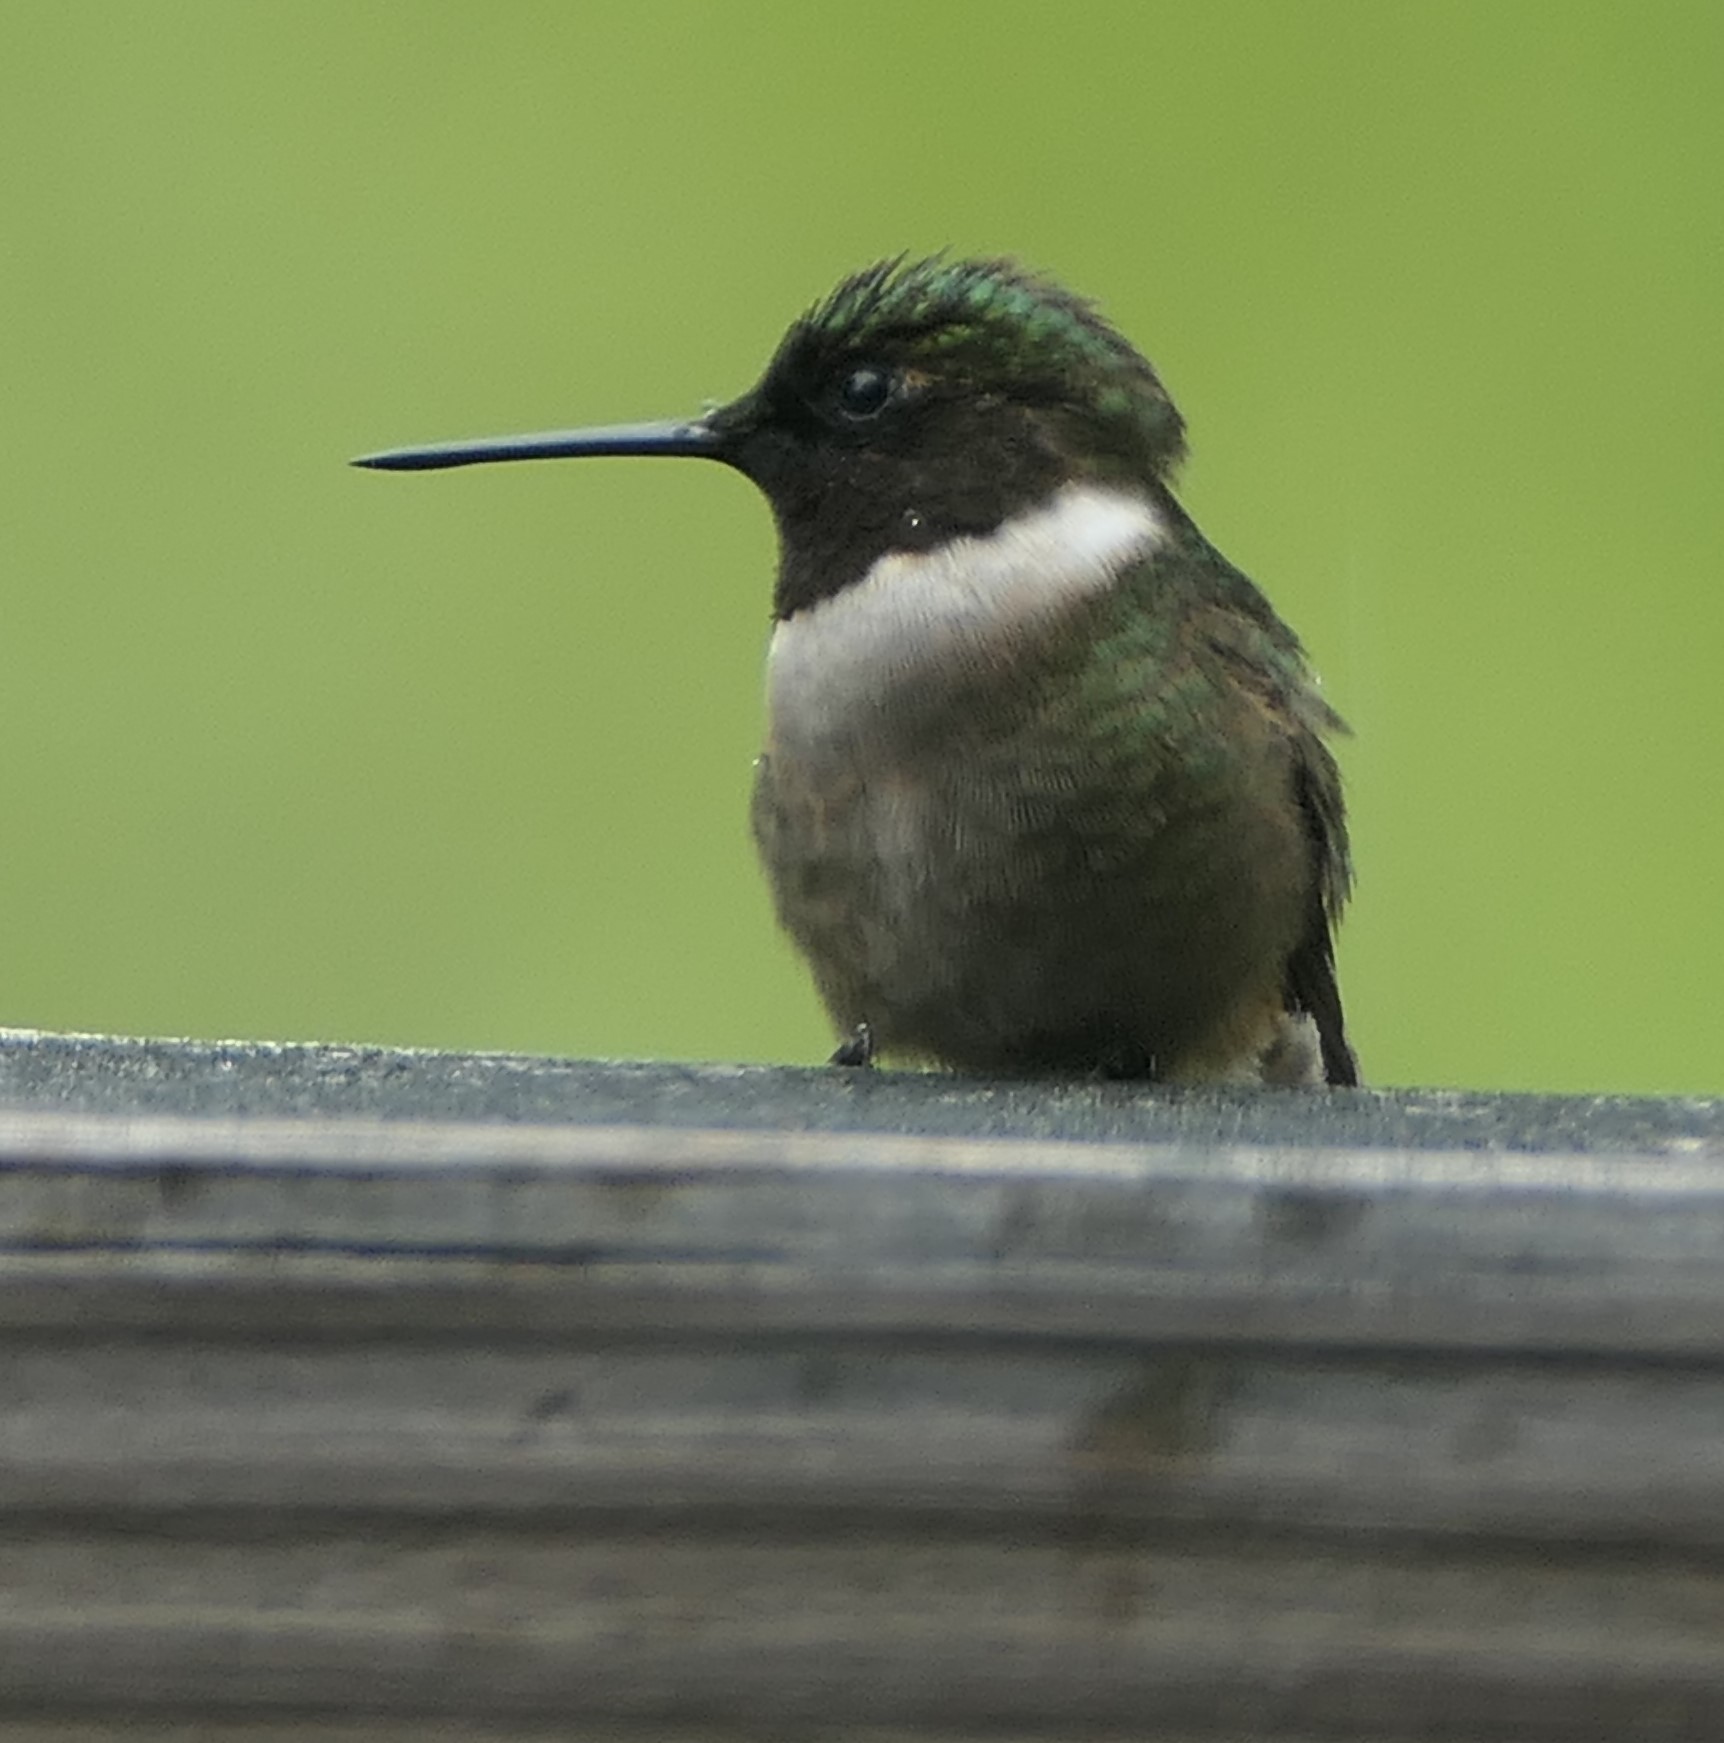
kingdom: Animalia
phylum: Chordata
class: Aves
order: Apodiformes
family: Trochilidae
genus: Archilochus
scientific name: Archilochus colubris
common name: Ruby-throated hummingbird
